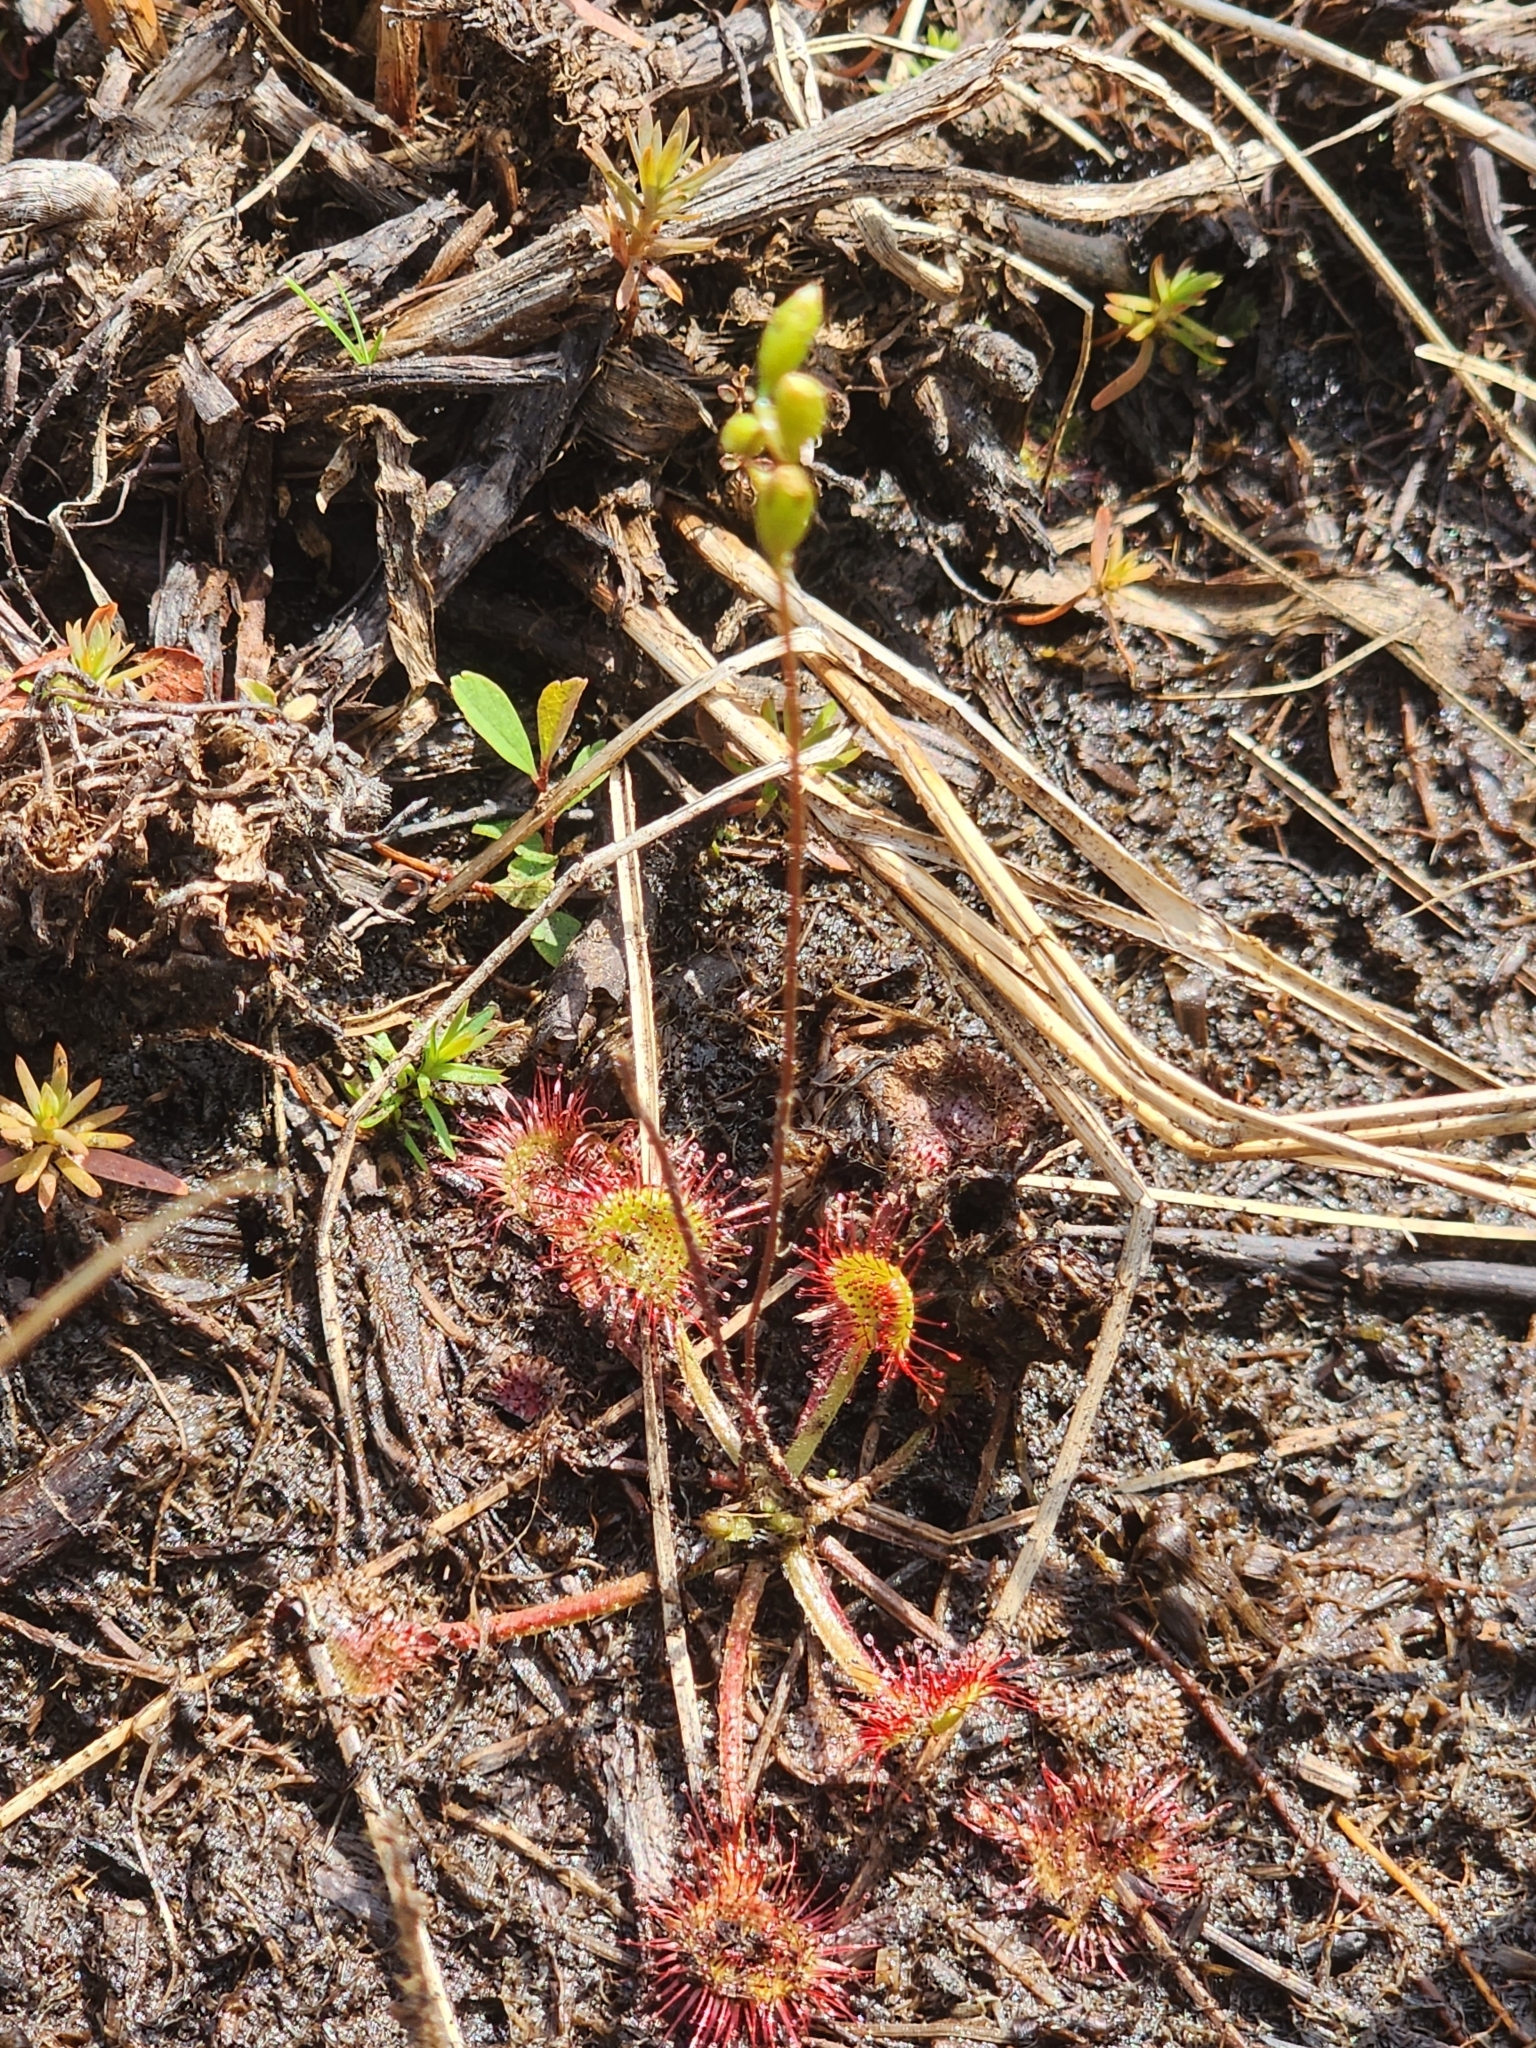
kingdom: Plantae
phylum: Tracheophyta
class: Magnoliopsida
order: Caryophyllales
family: Droseraceae
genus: Drosera
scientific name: Drosera rotundifolia
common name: Round-leaved sundew
